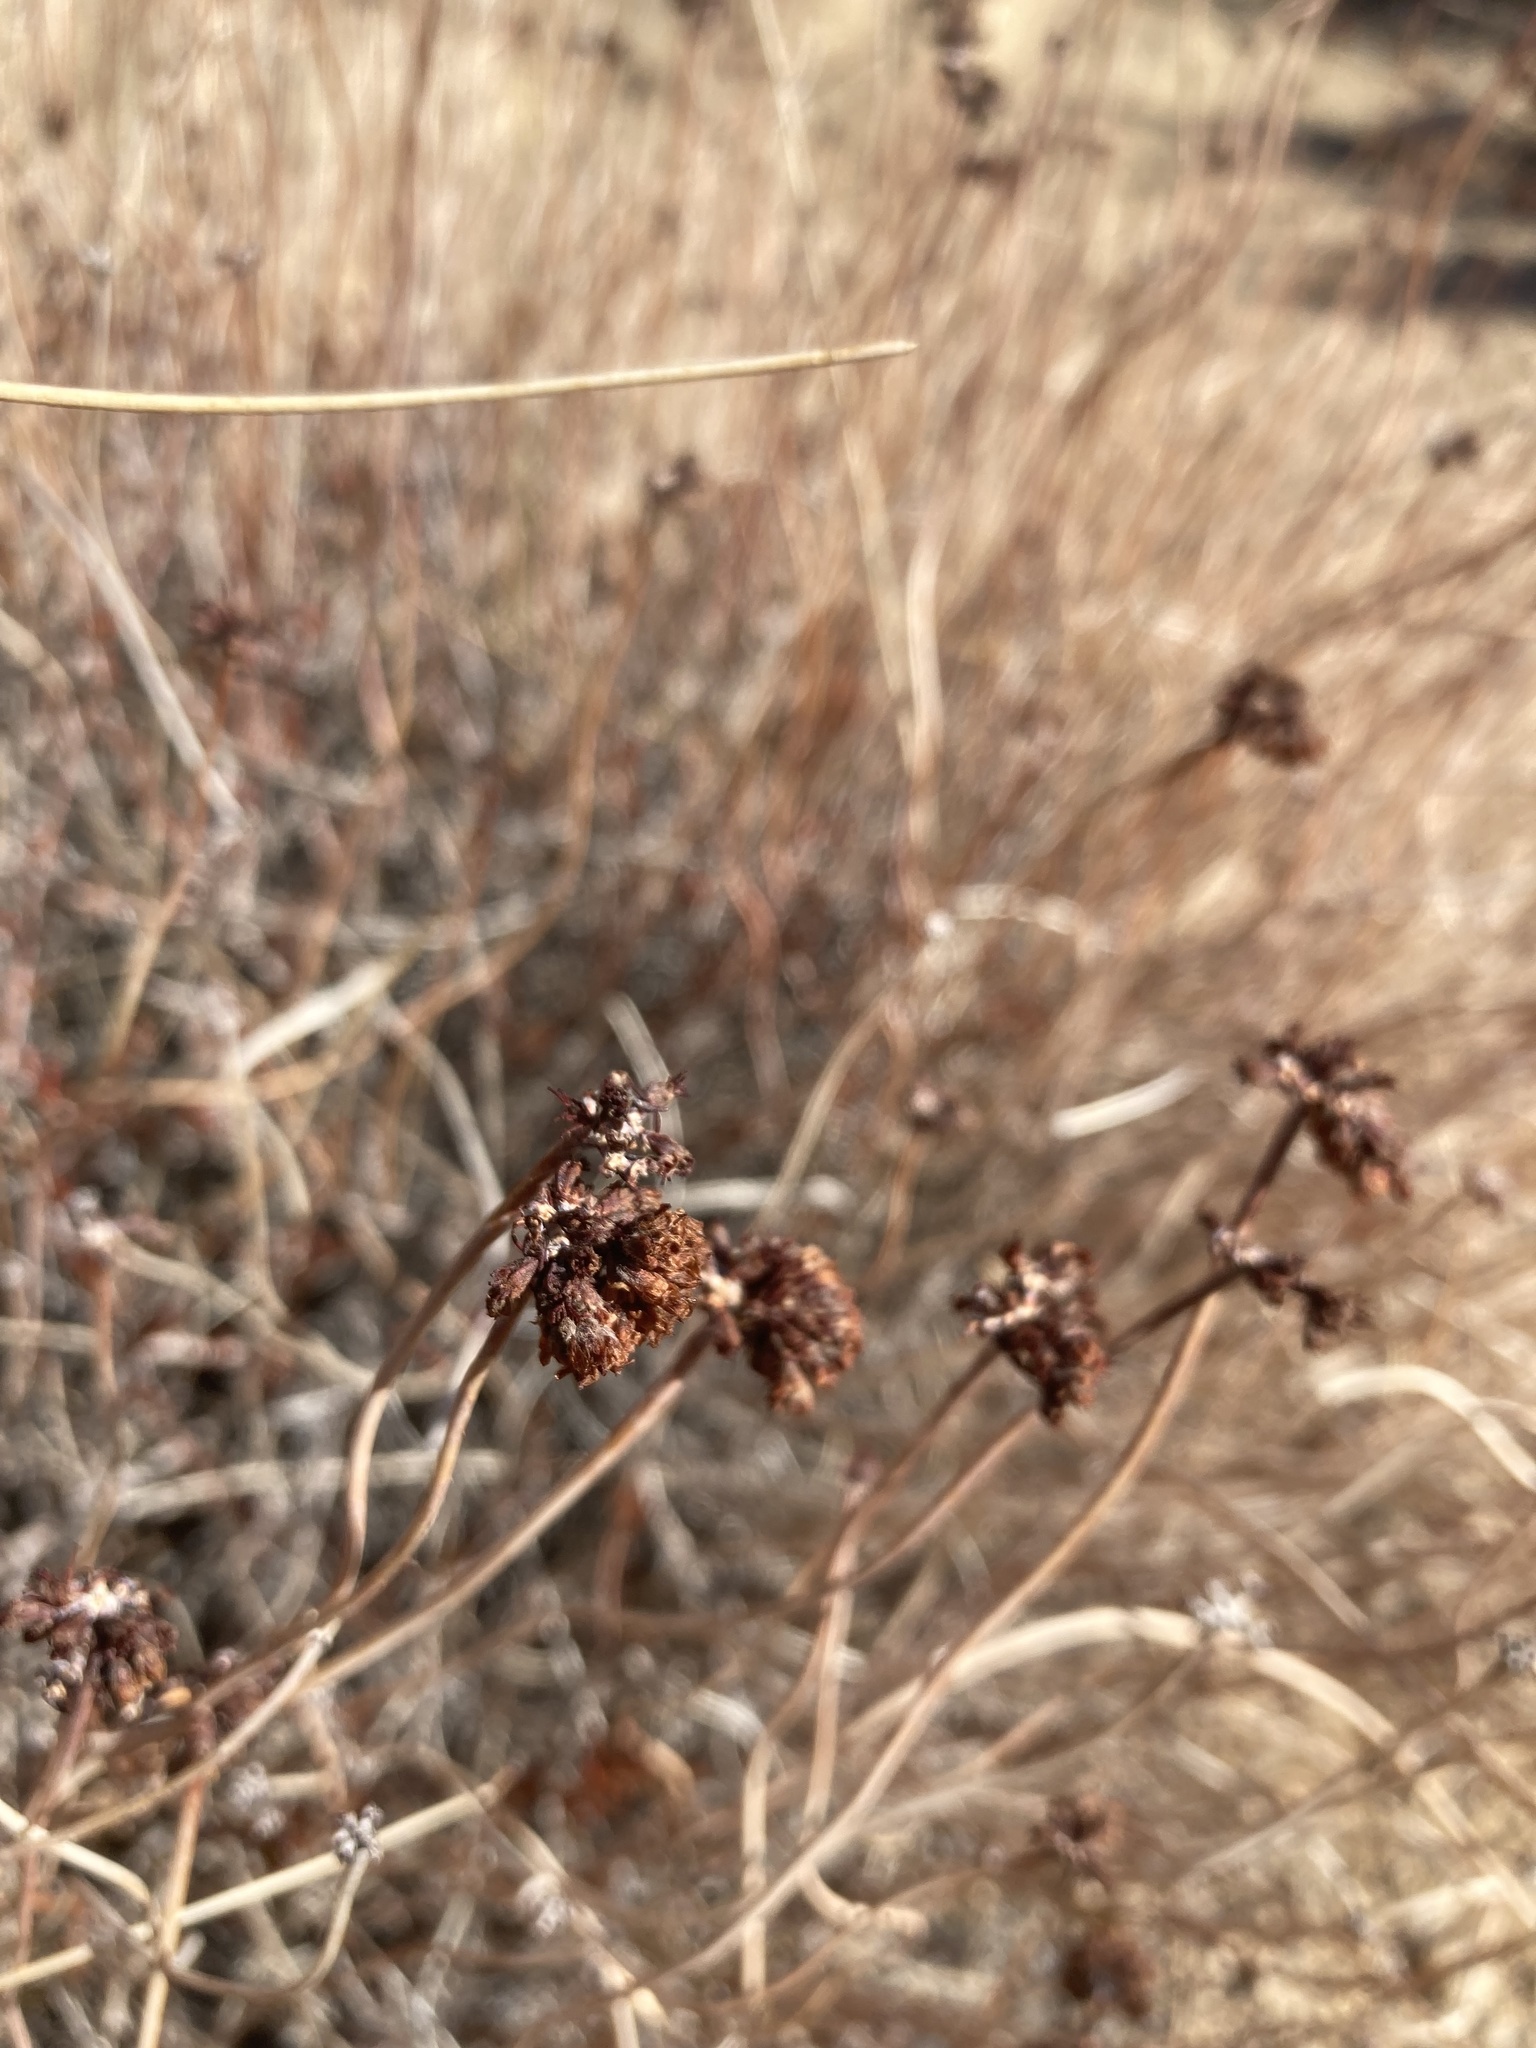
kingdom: Plantae
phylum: Tracheophyta
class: Magnoliopsida
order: Caryophyllales
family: Polygonaceae
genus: Eriogonum
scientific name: Eriogonum fasciculatum
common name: California wild buckwheat
